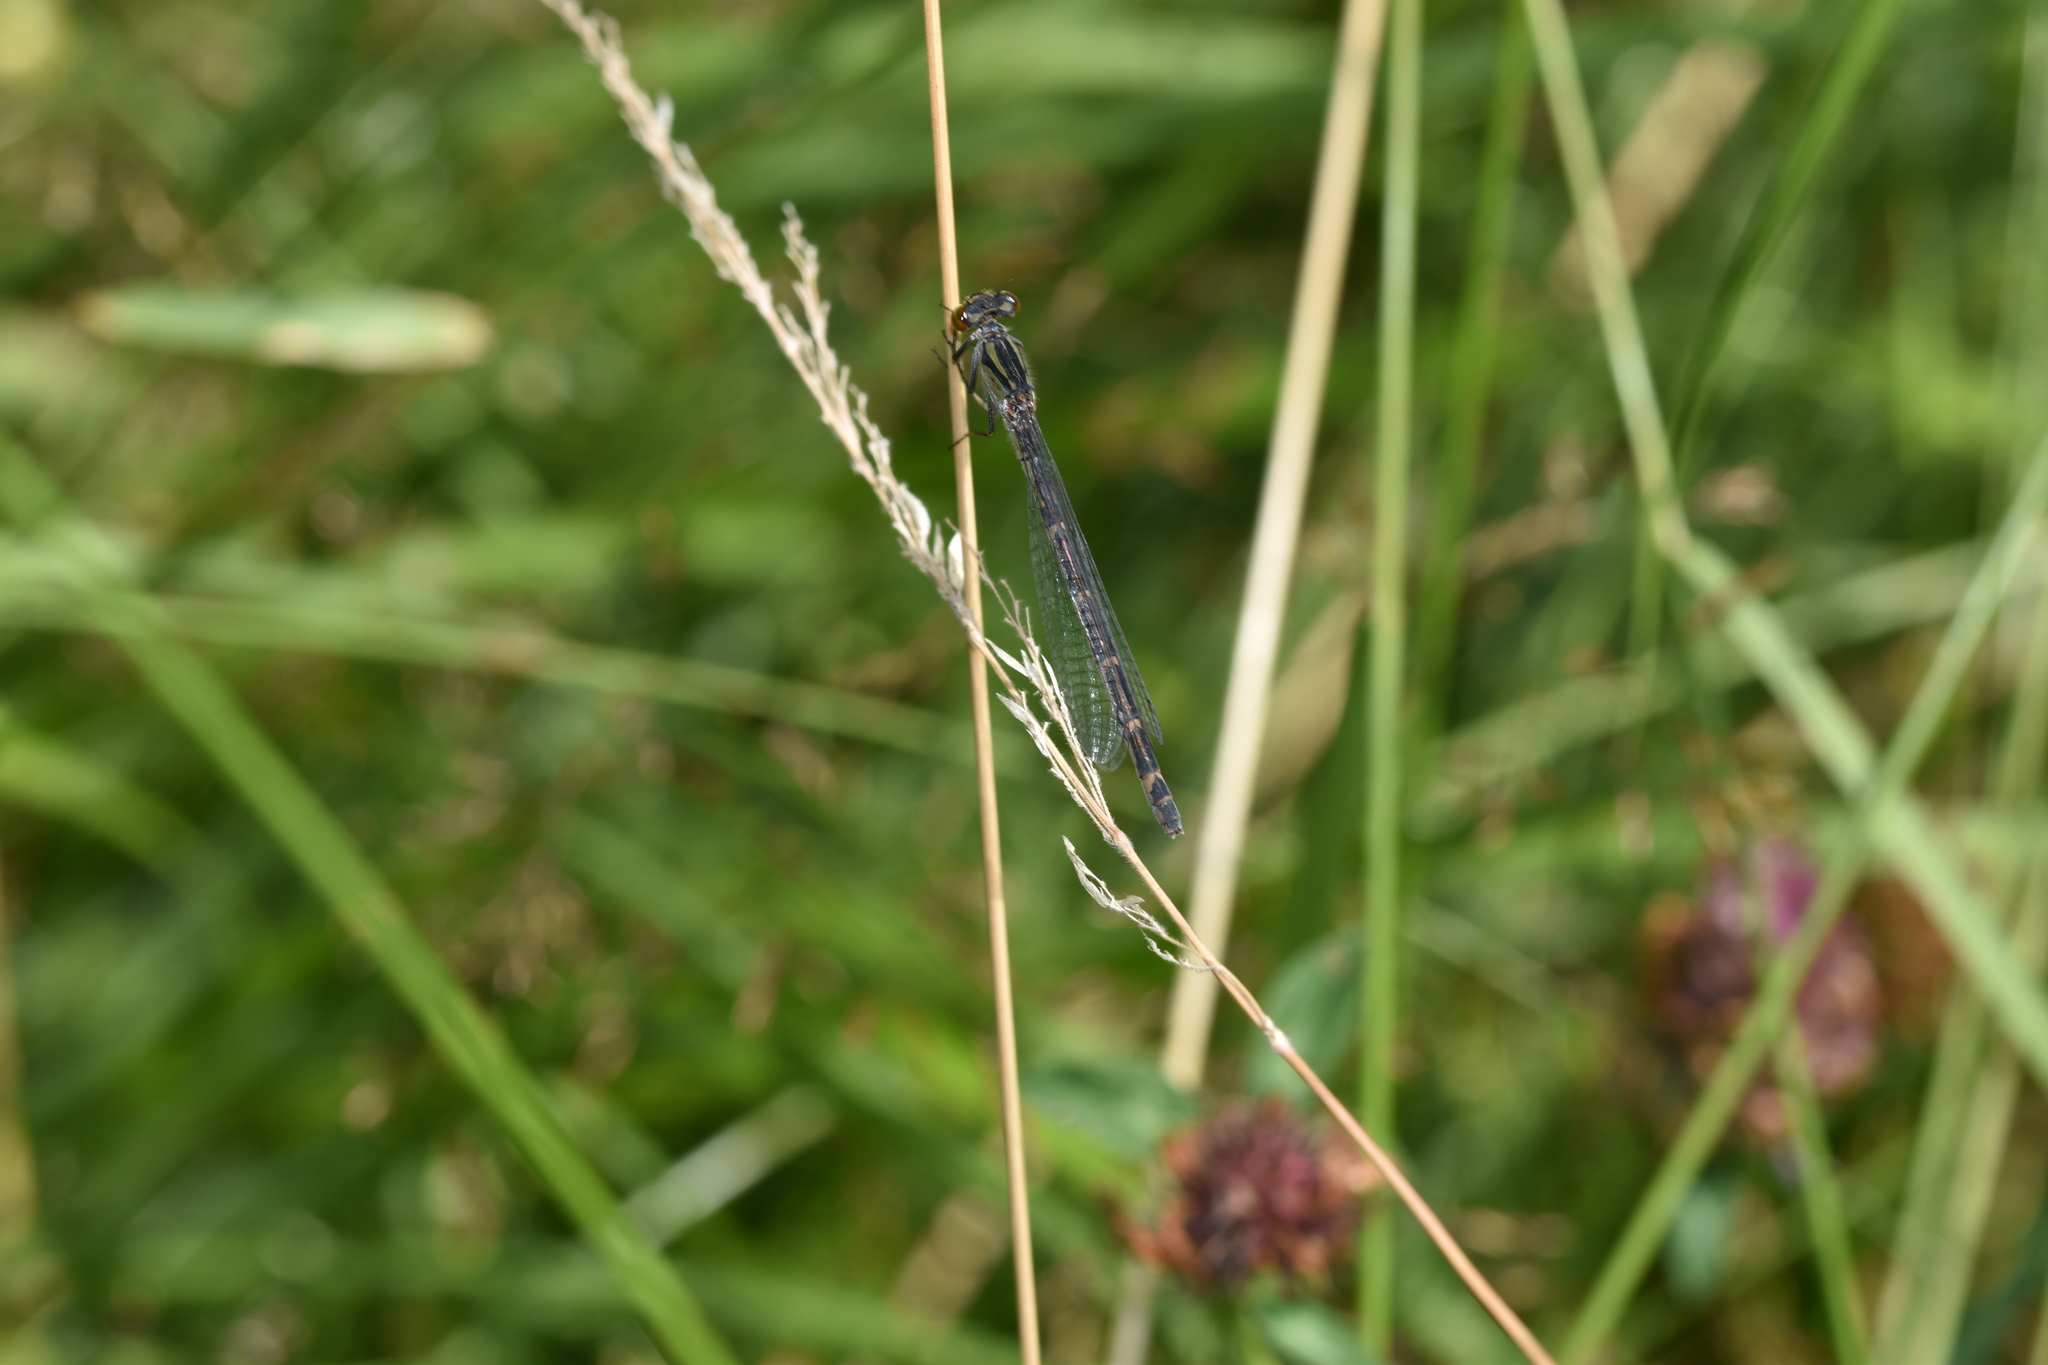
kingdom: Animalia
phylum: Arthropoda
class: Insecta
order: Odonata
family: Coenagrionidae
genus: Enallagma
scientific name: Enallagma cyathigerum
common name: Common blue damselfly
